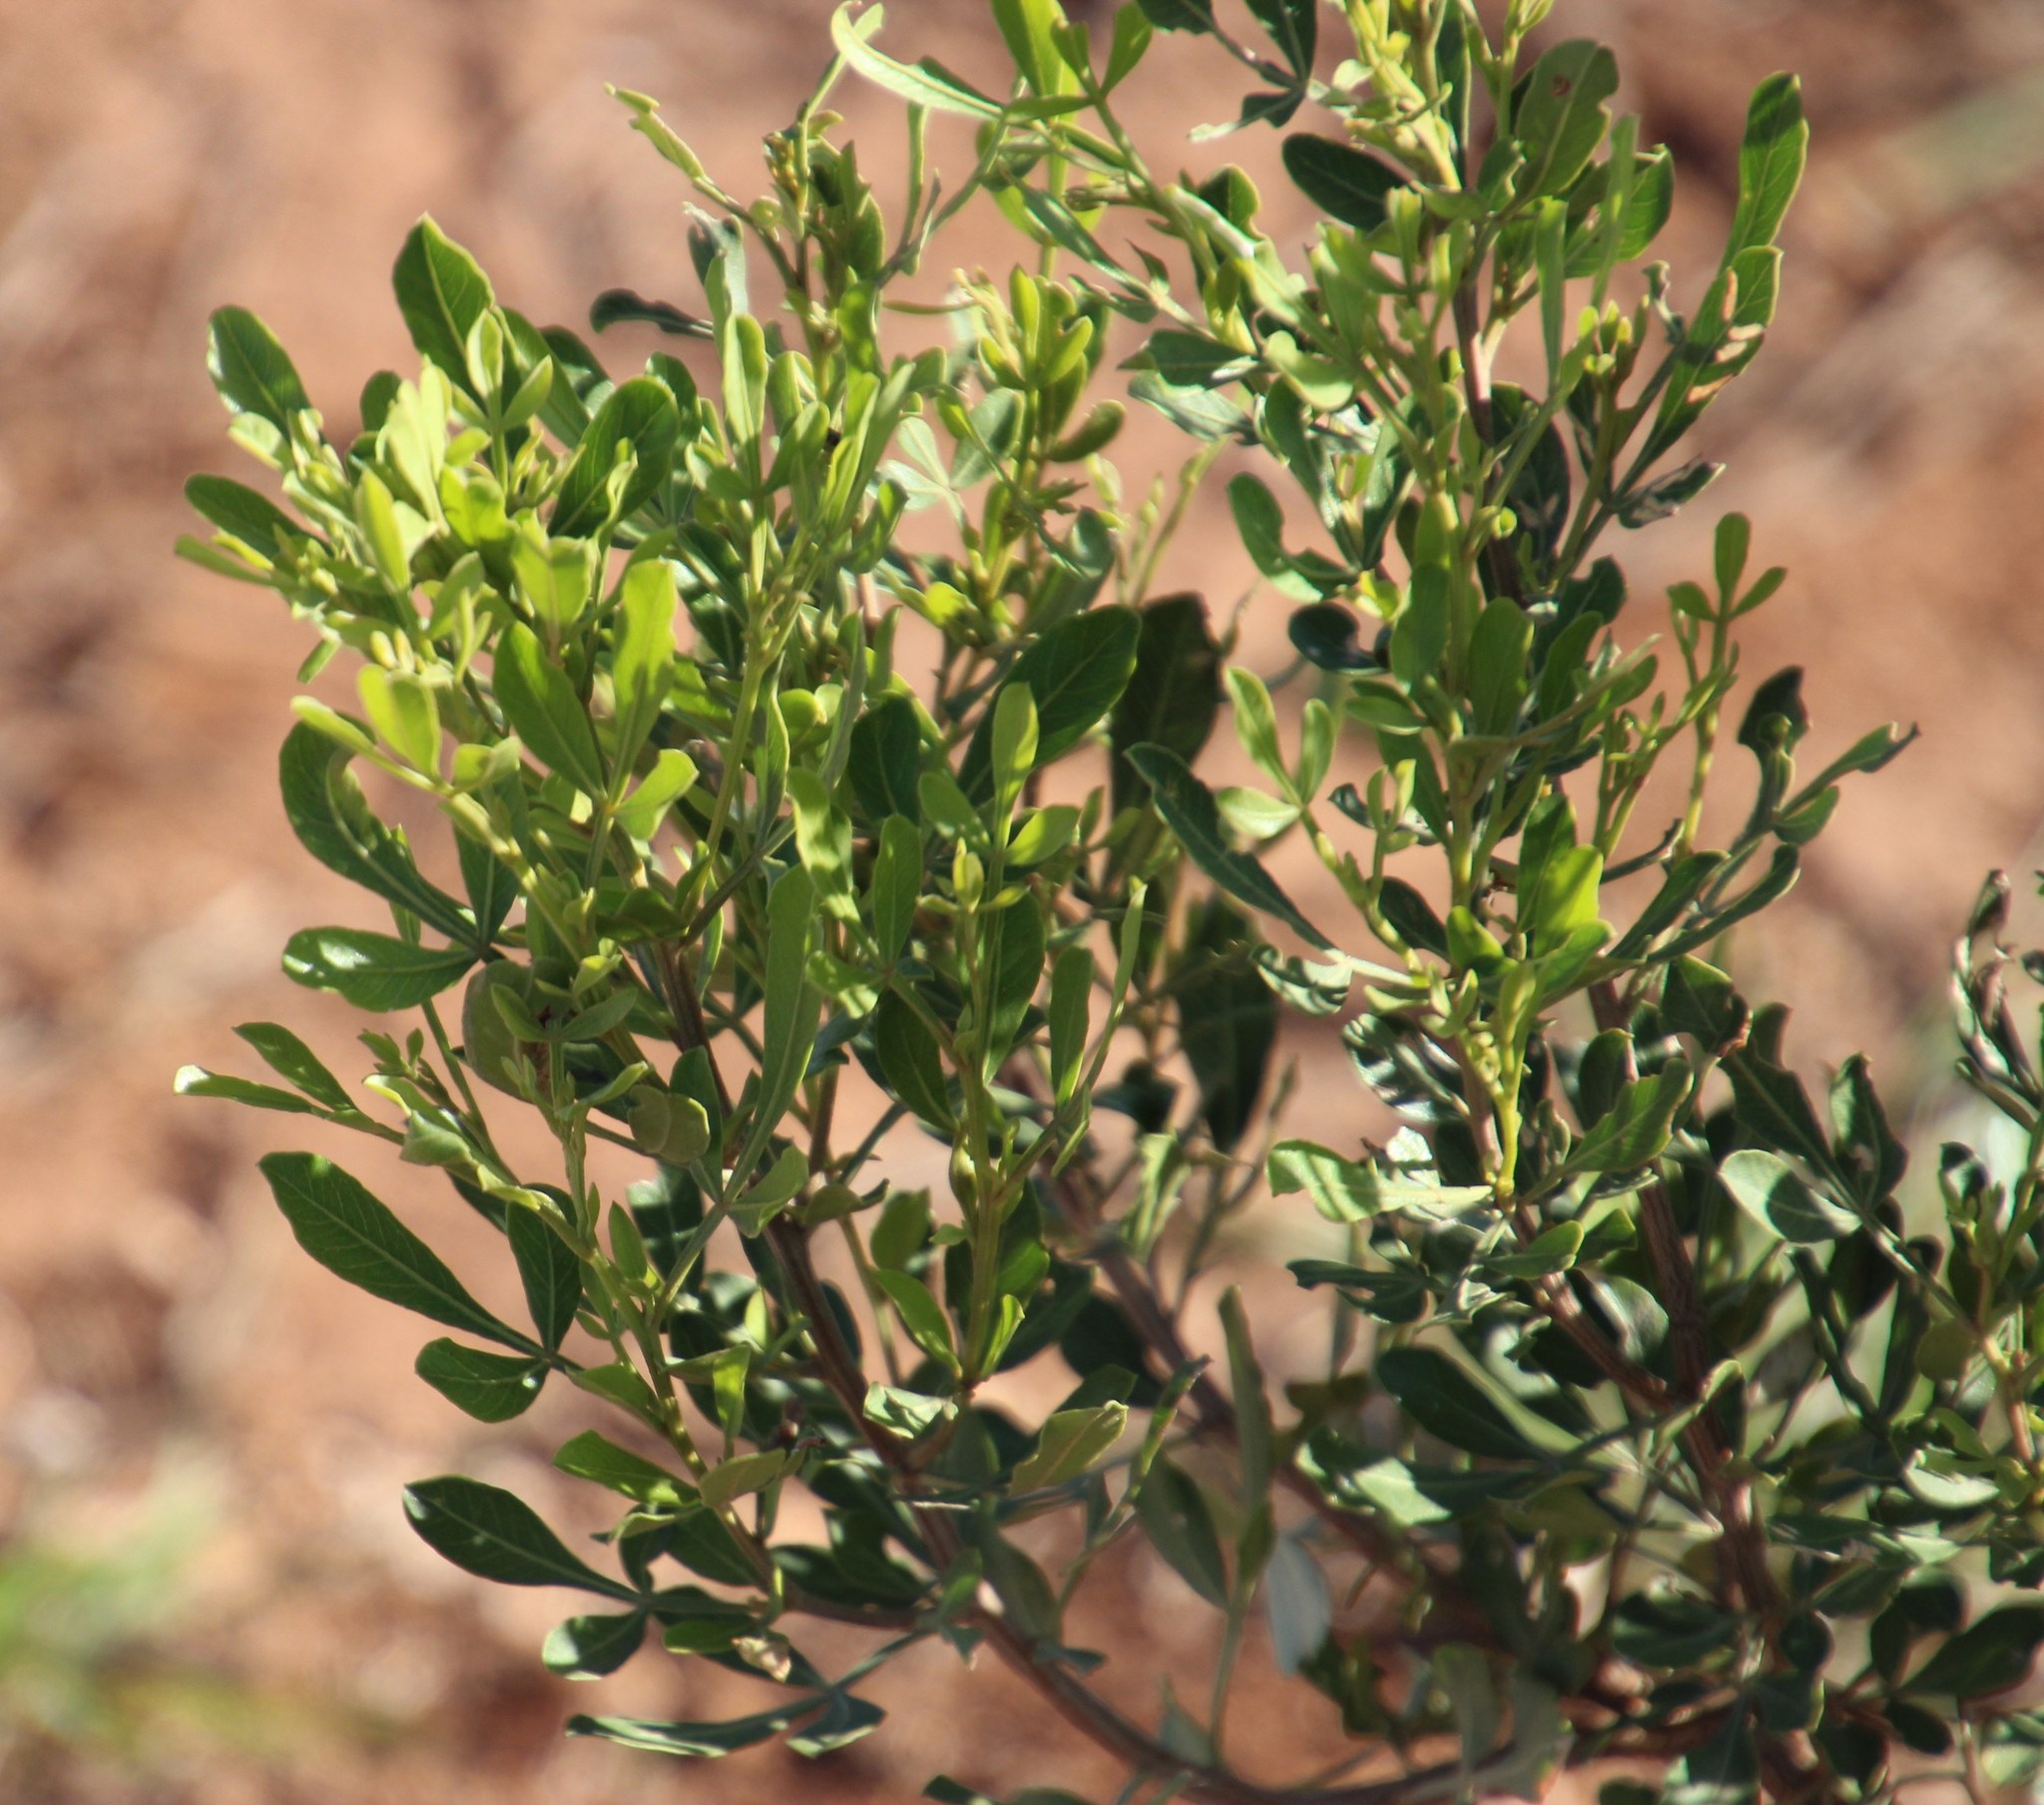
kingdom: Plantae
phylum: Tracheophyta
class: Magnoliopsida
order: Sapindales
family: Anacardiaceae
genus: Searsia
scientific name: Searsia pallens
